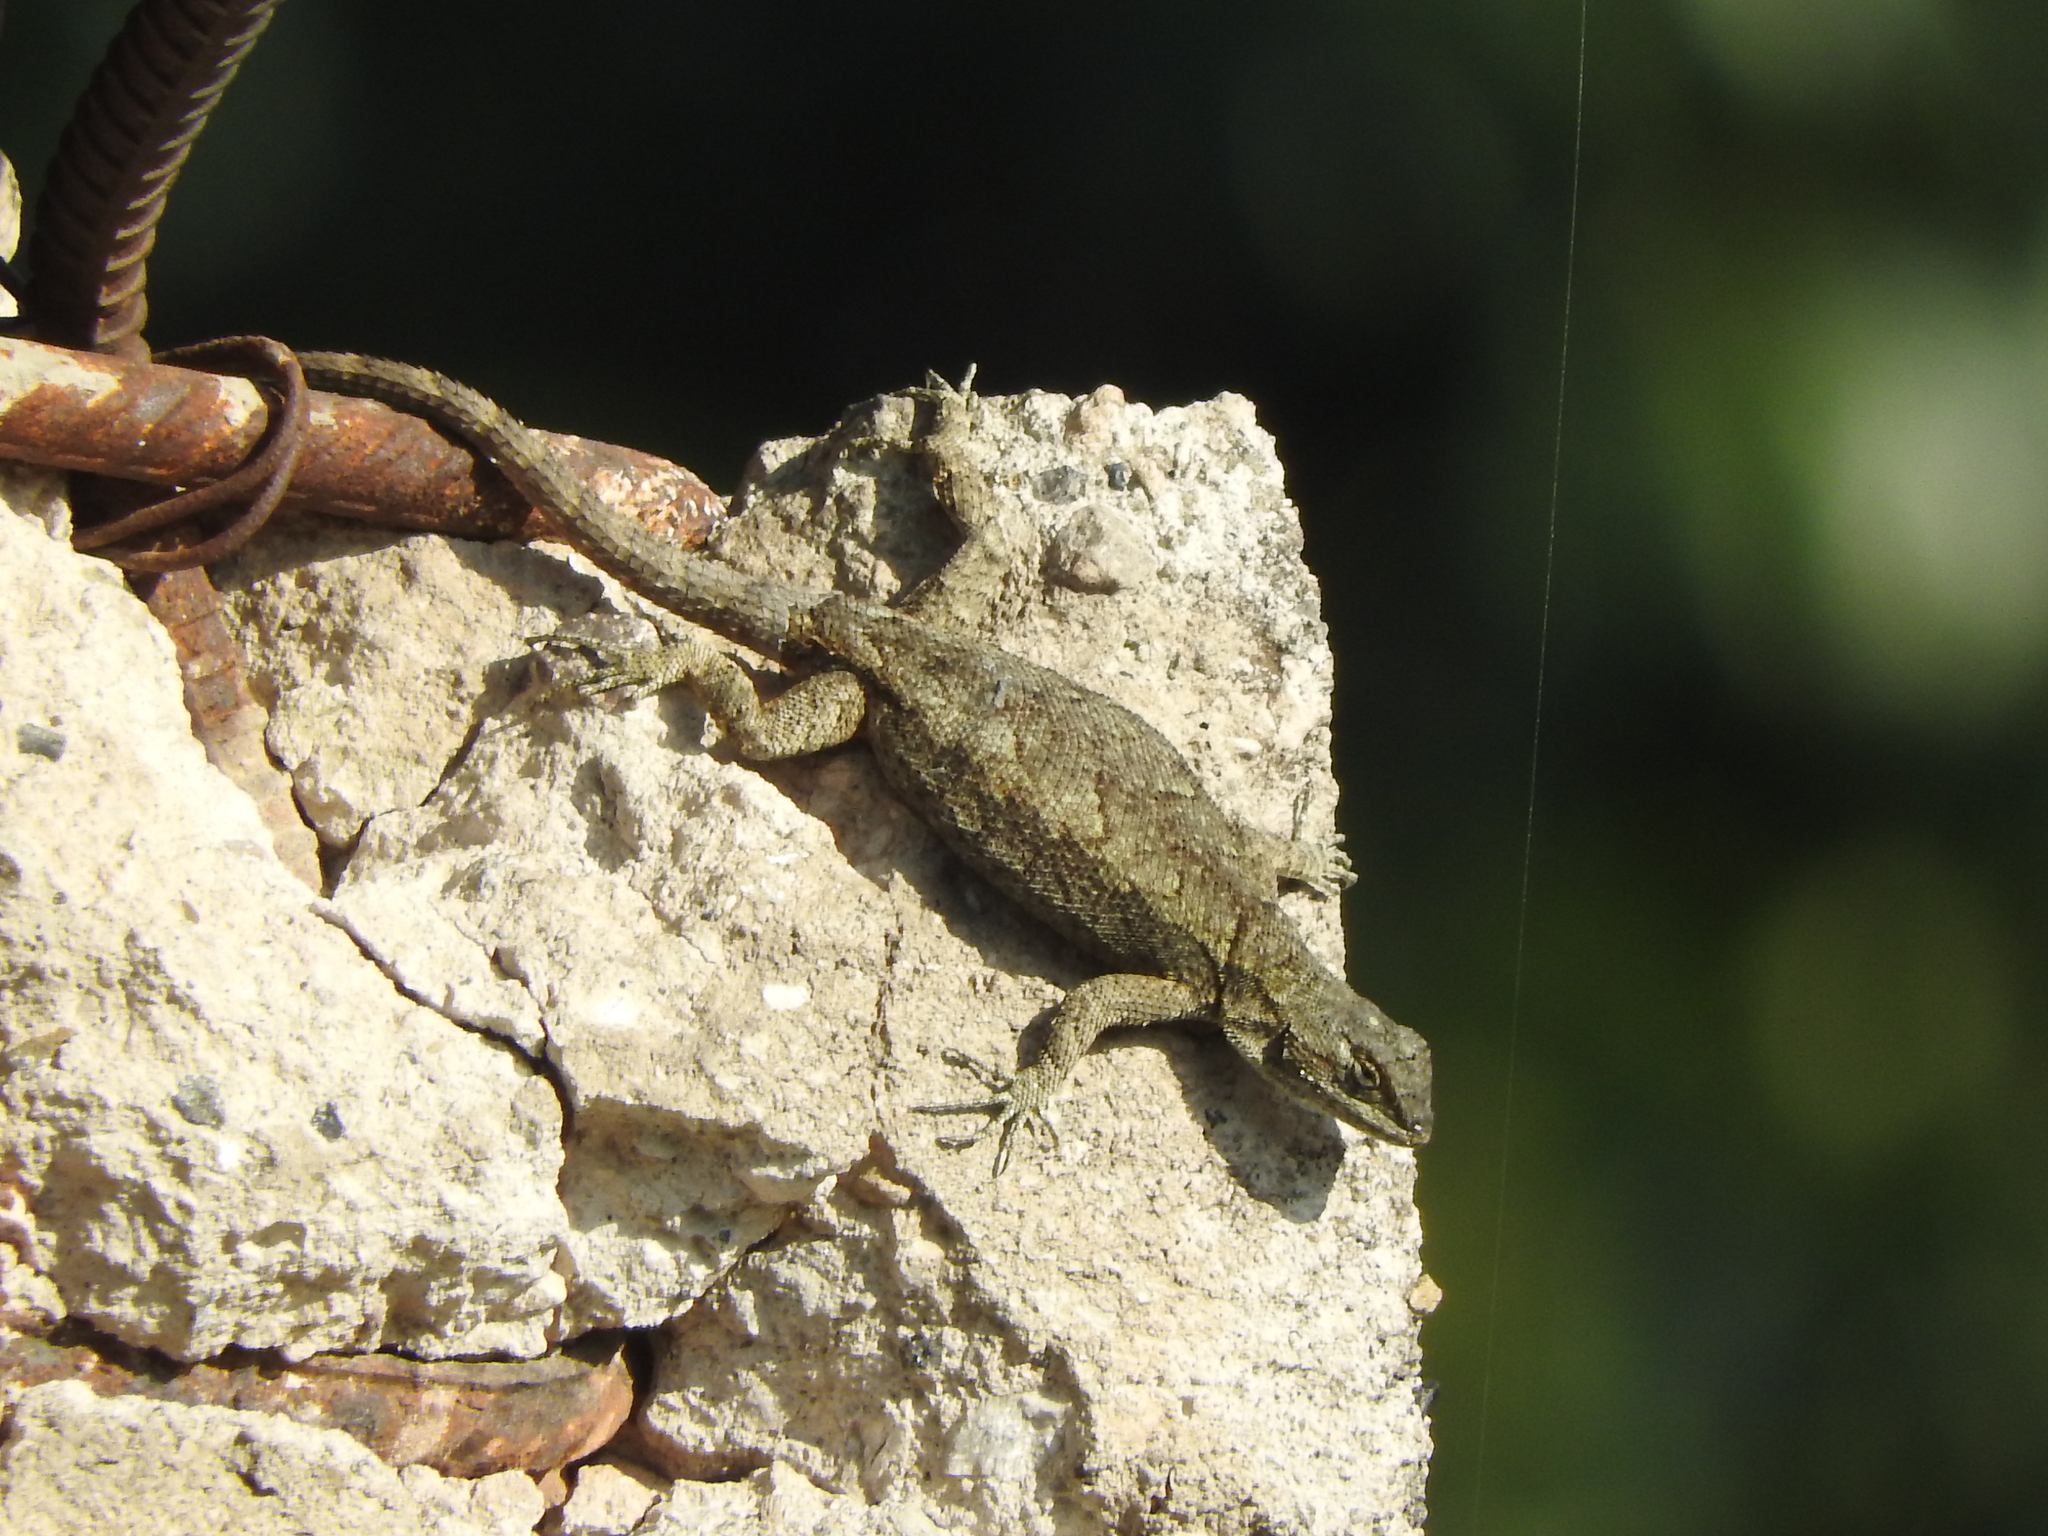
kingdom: Animalia
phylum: Chordata
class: Squamata
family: Phrynosomatidae
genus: Sceloporus
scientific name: Sceloporus grammicus
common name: Mesquite lizard
